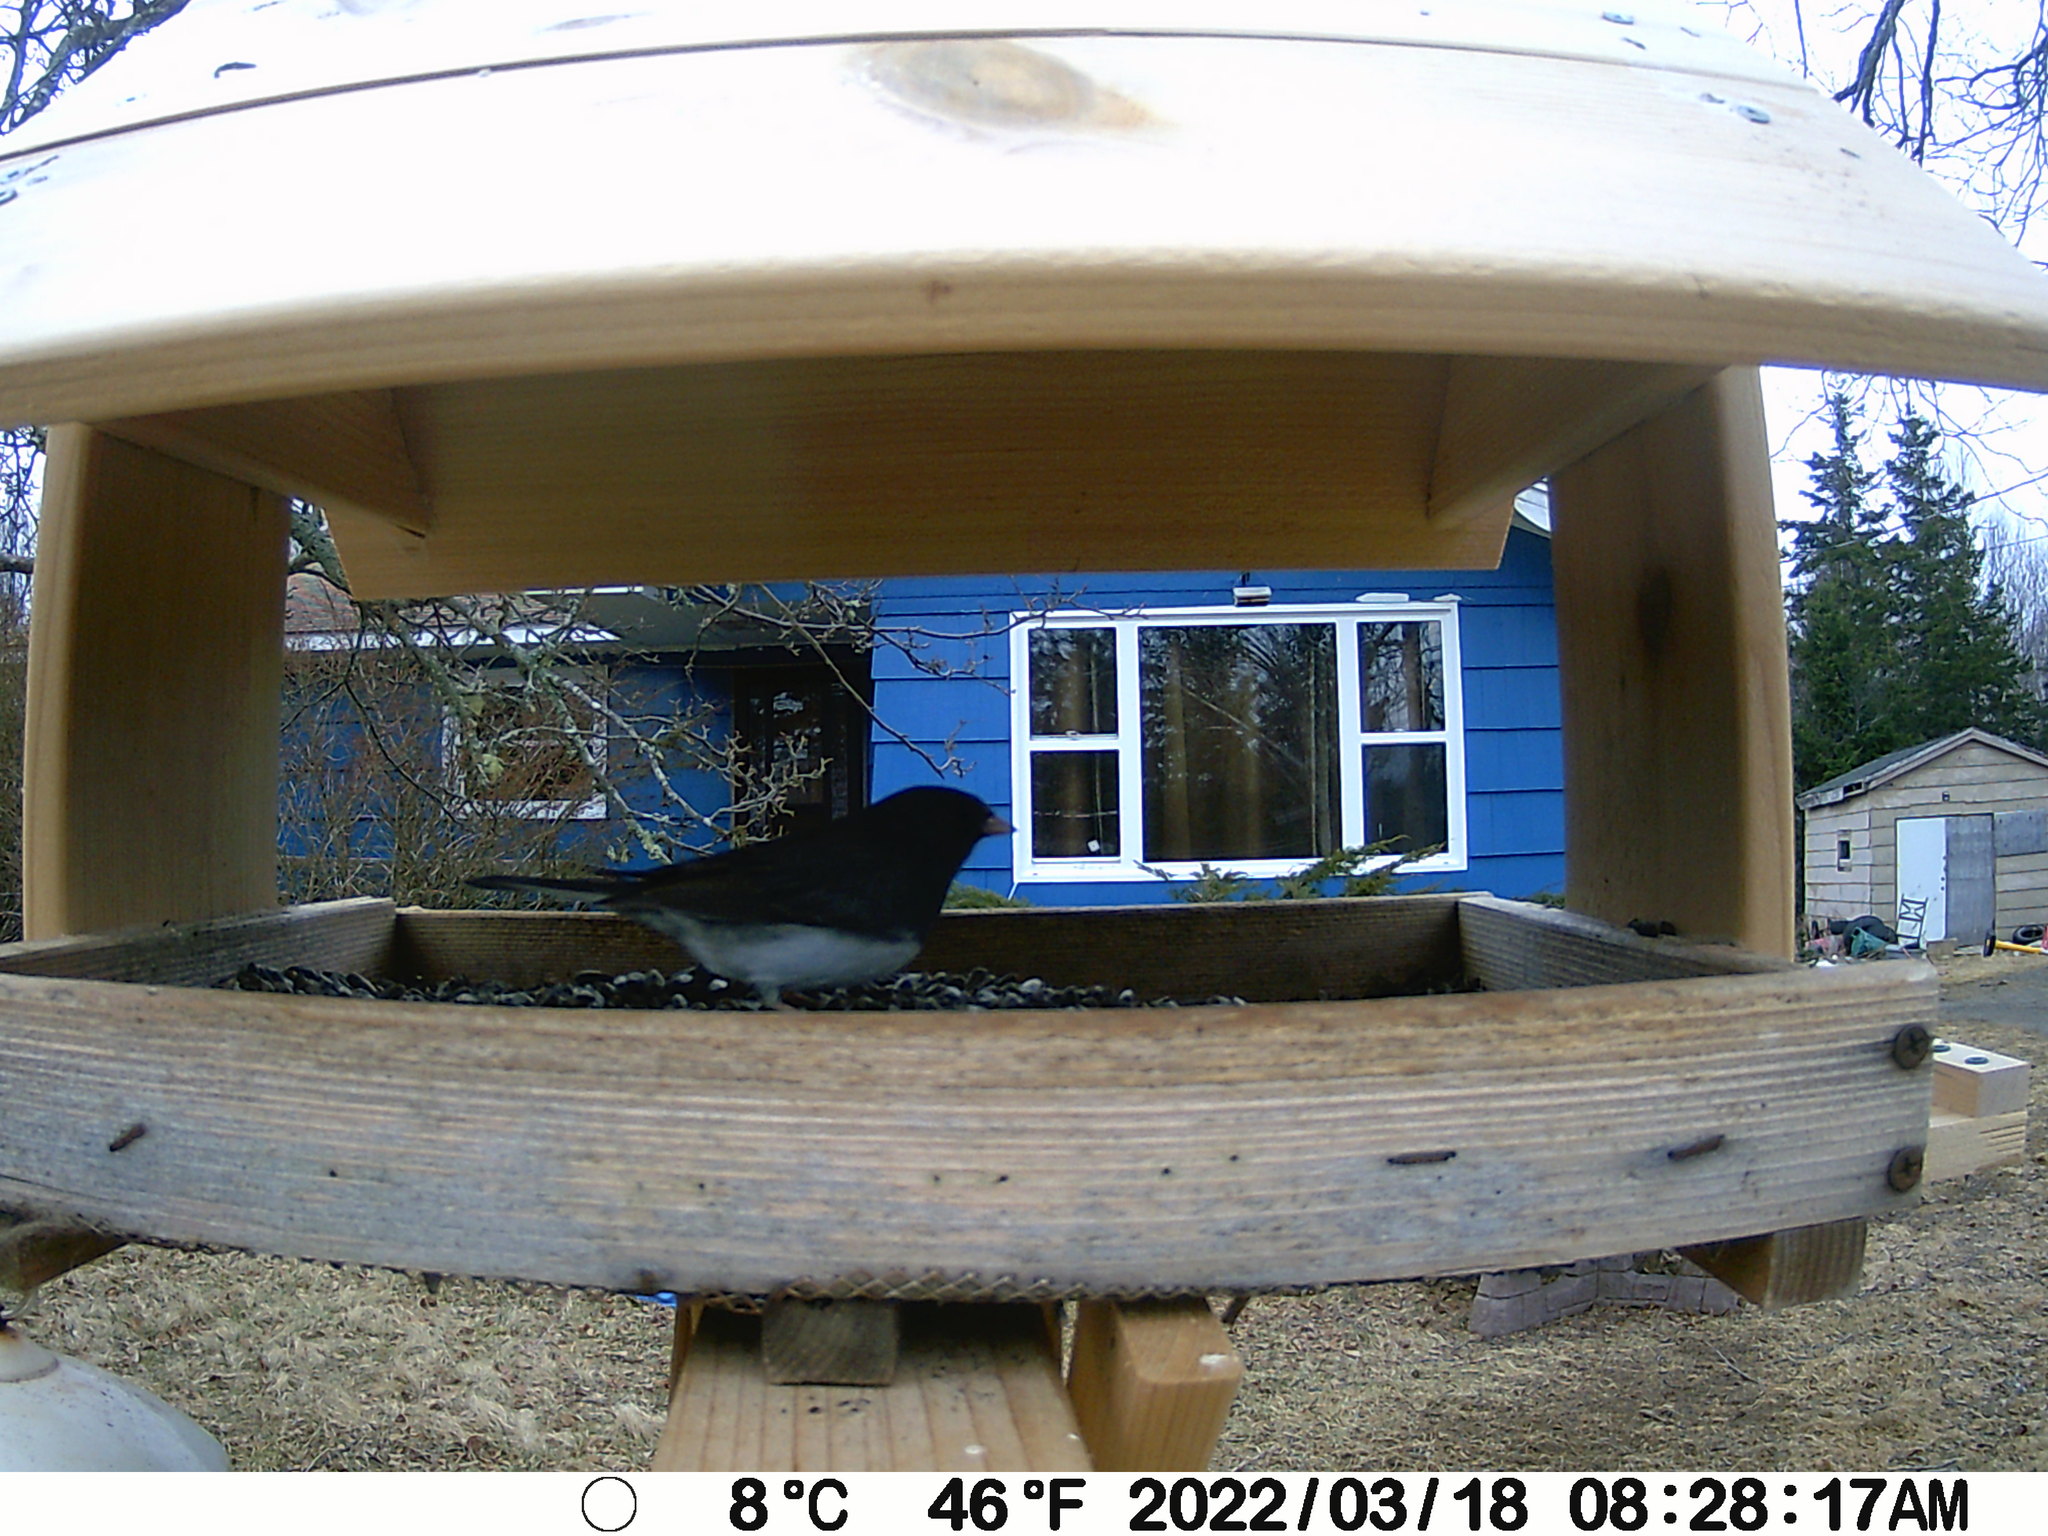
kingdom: Animalia
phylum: Chordata
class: Aves
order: Passeriformes
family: Passerellidae
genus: Junco
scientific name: Junco hyemalis
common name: Dark-eyed junco
